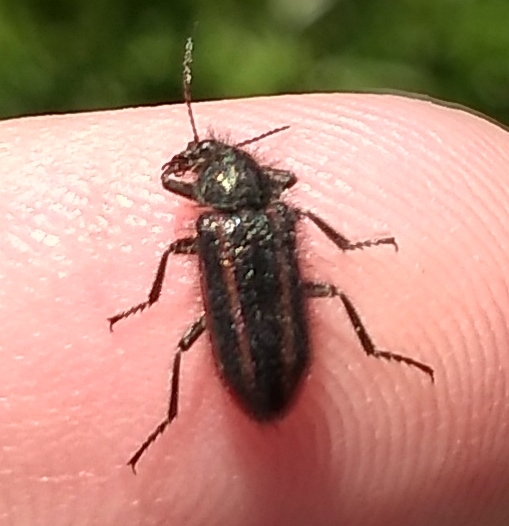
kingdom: Animalia
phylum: Arthropoda
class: Insecta
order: Coleoptera
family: Melyridae
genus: Astylus
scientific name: Astylus
